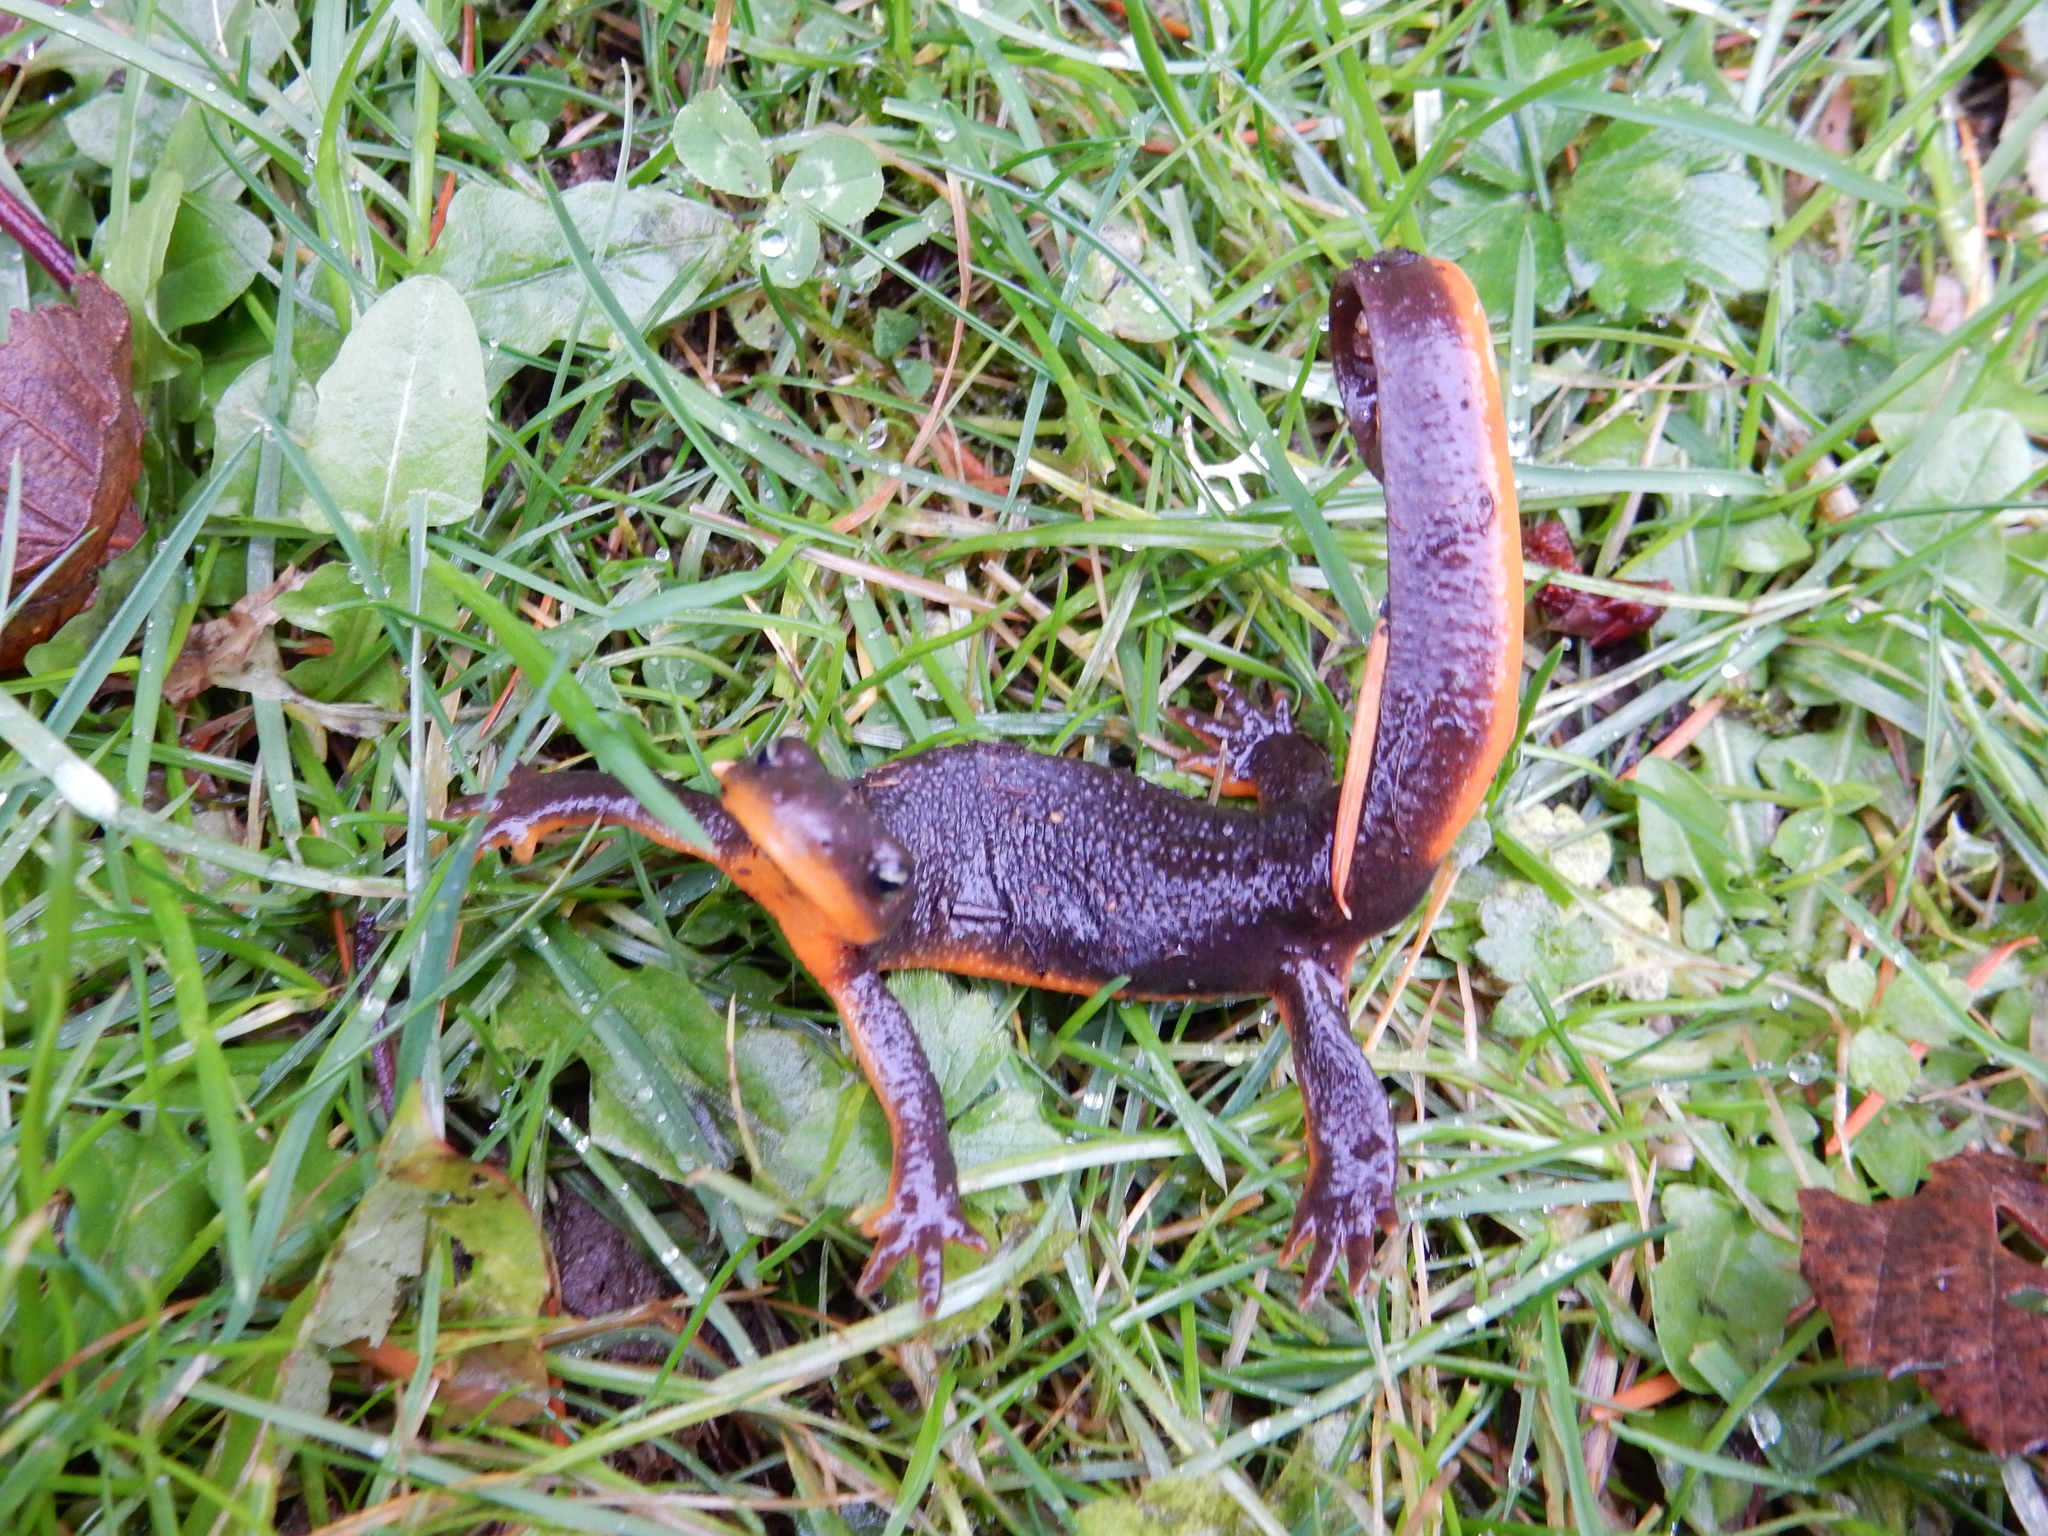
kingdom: Animalia
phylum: Chordata
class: Amphibia
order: Caudata
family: Salamandridae
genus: Taricha
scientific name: Taricha granulosa
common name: Roughskin newt
